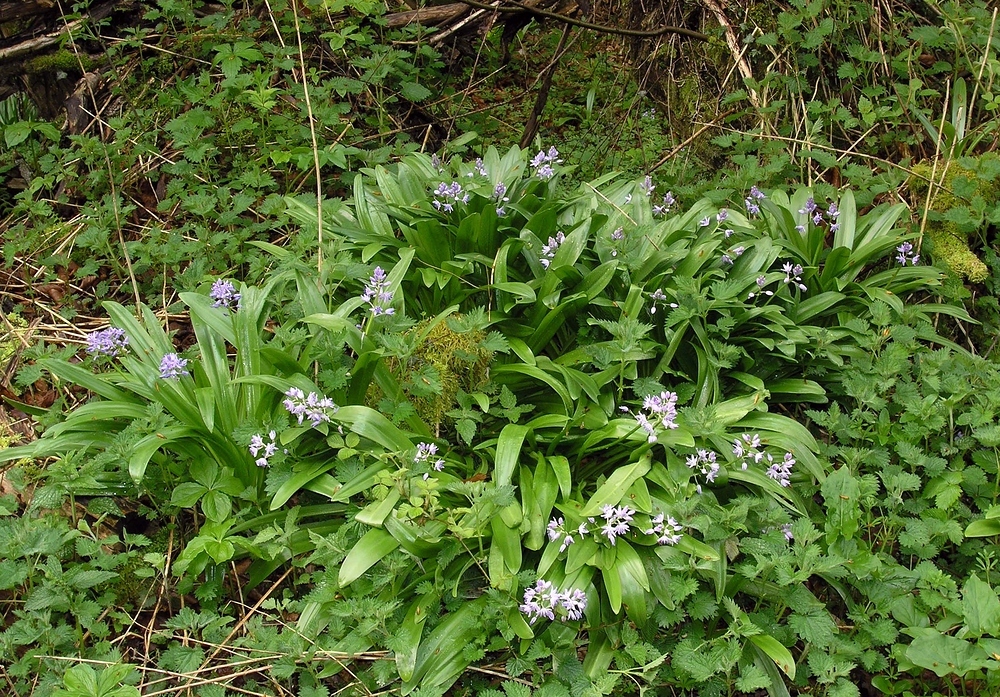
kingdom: Plantae
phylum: Tracheophyta
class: Liliopsida
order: Asparagales
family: Asparagaceae
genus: Scilla
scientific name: Scilla lilio-hyacinthus
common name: Pyrenean squill
